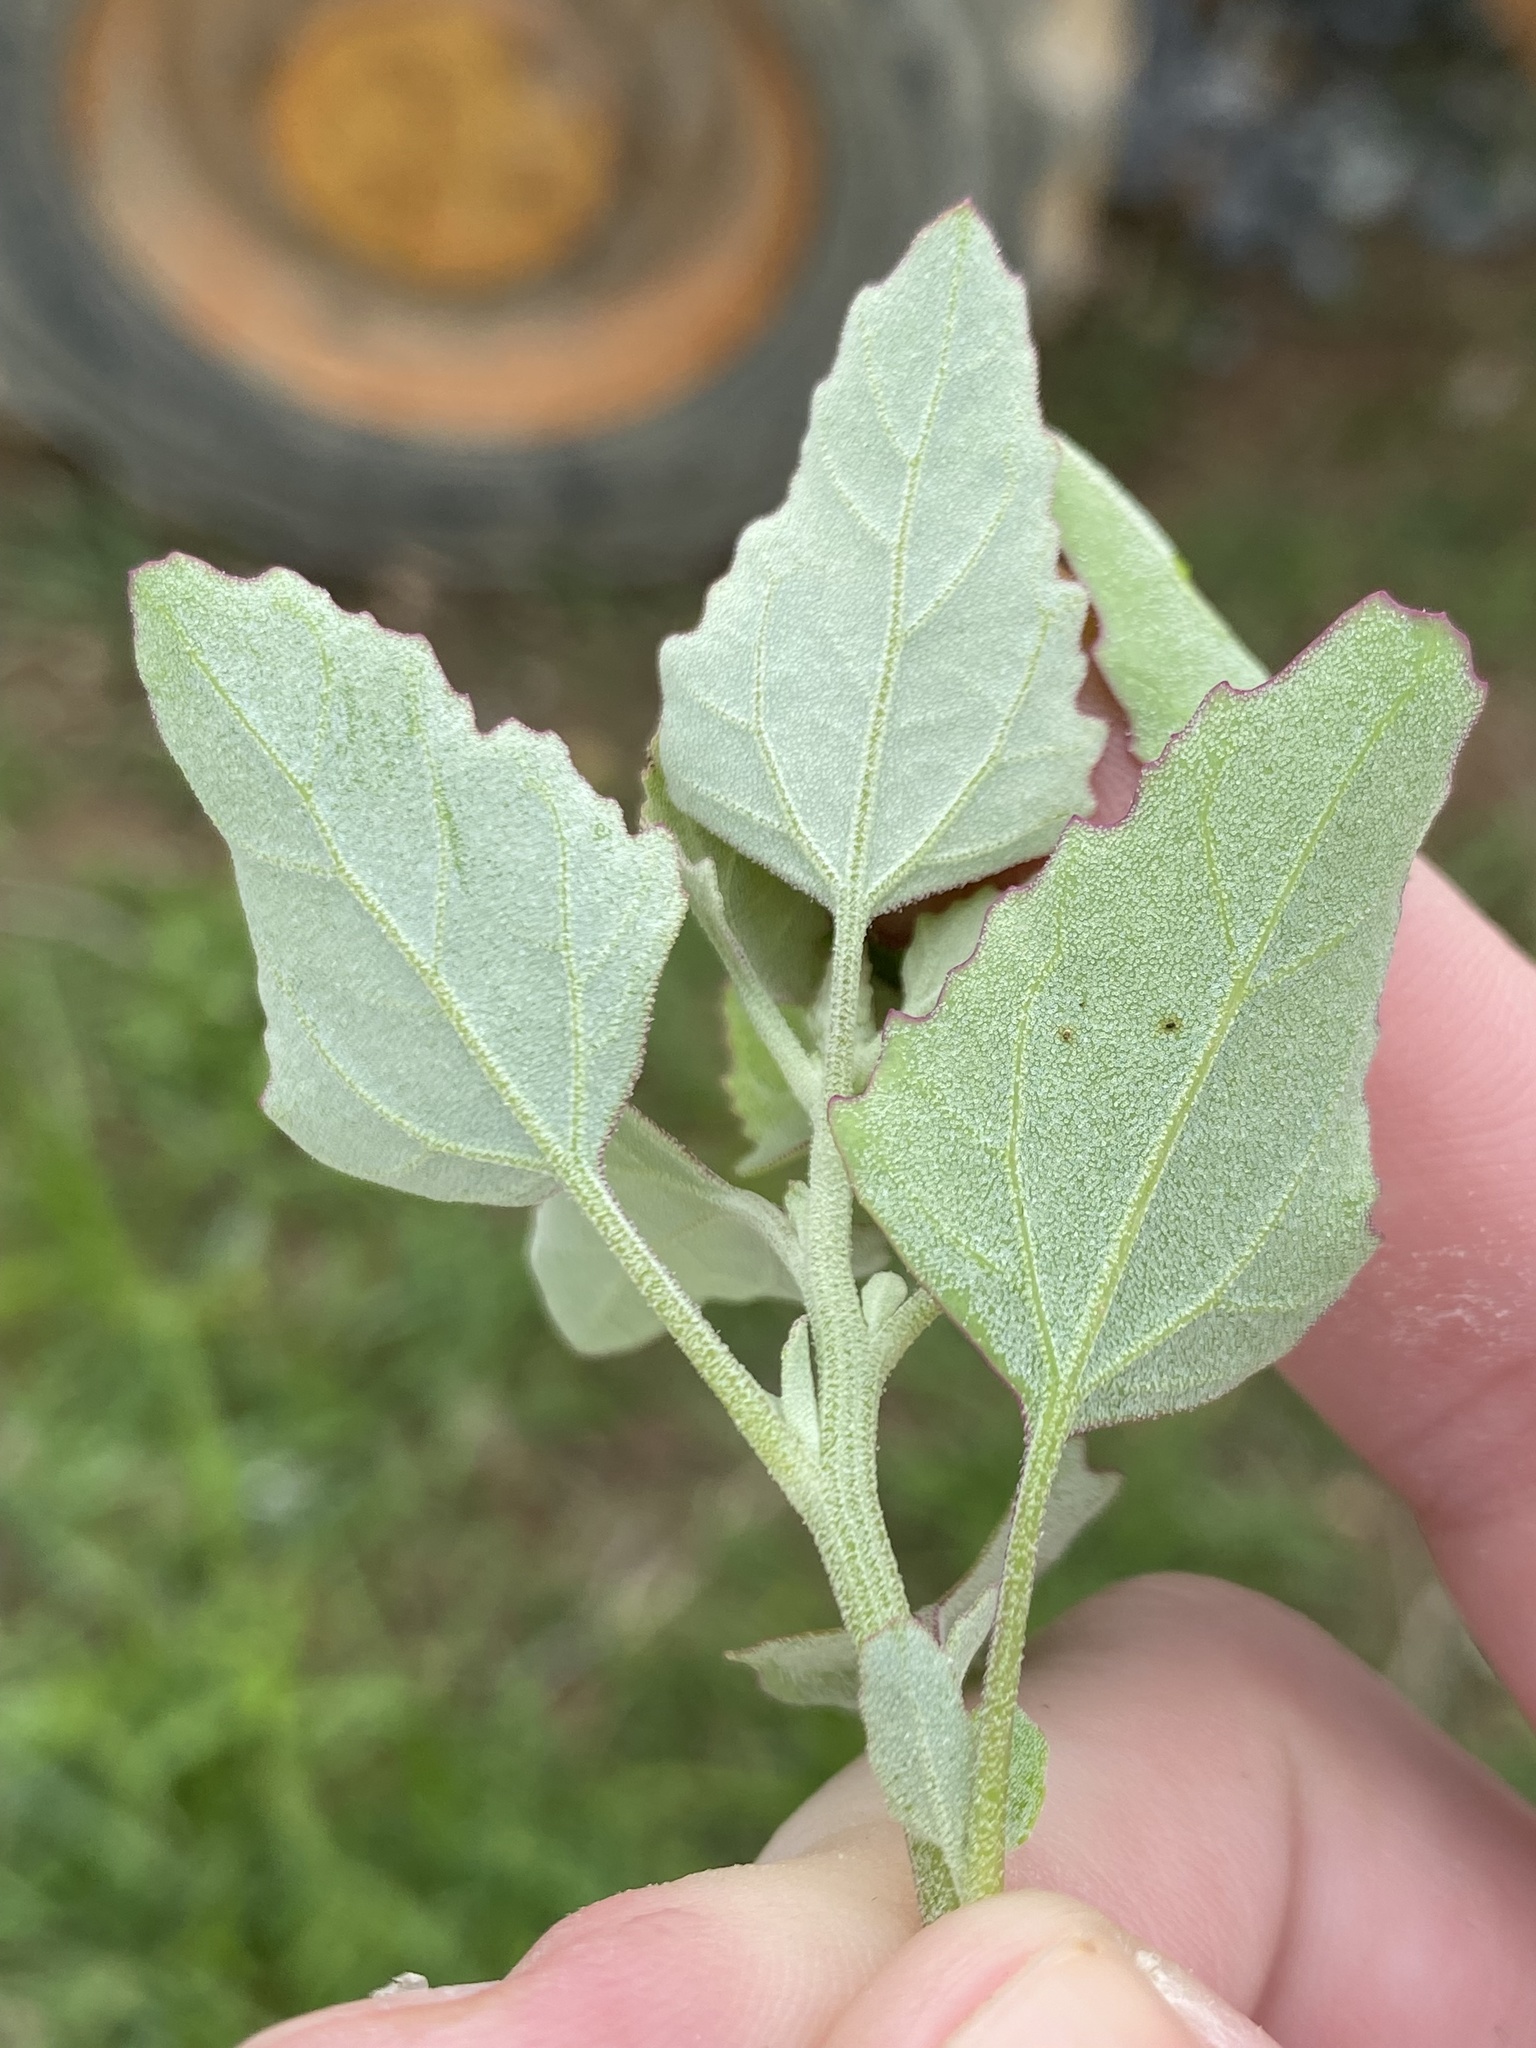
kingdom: Plantae
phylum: Tracheophyta
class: Magnoliopsida
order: Caryophyllales
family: Amaranthaceae
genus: Chenopodium
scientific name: Chenopodium album
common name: Fat-hen
